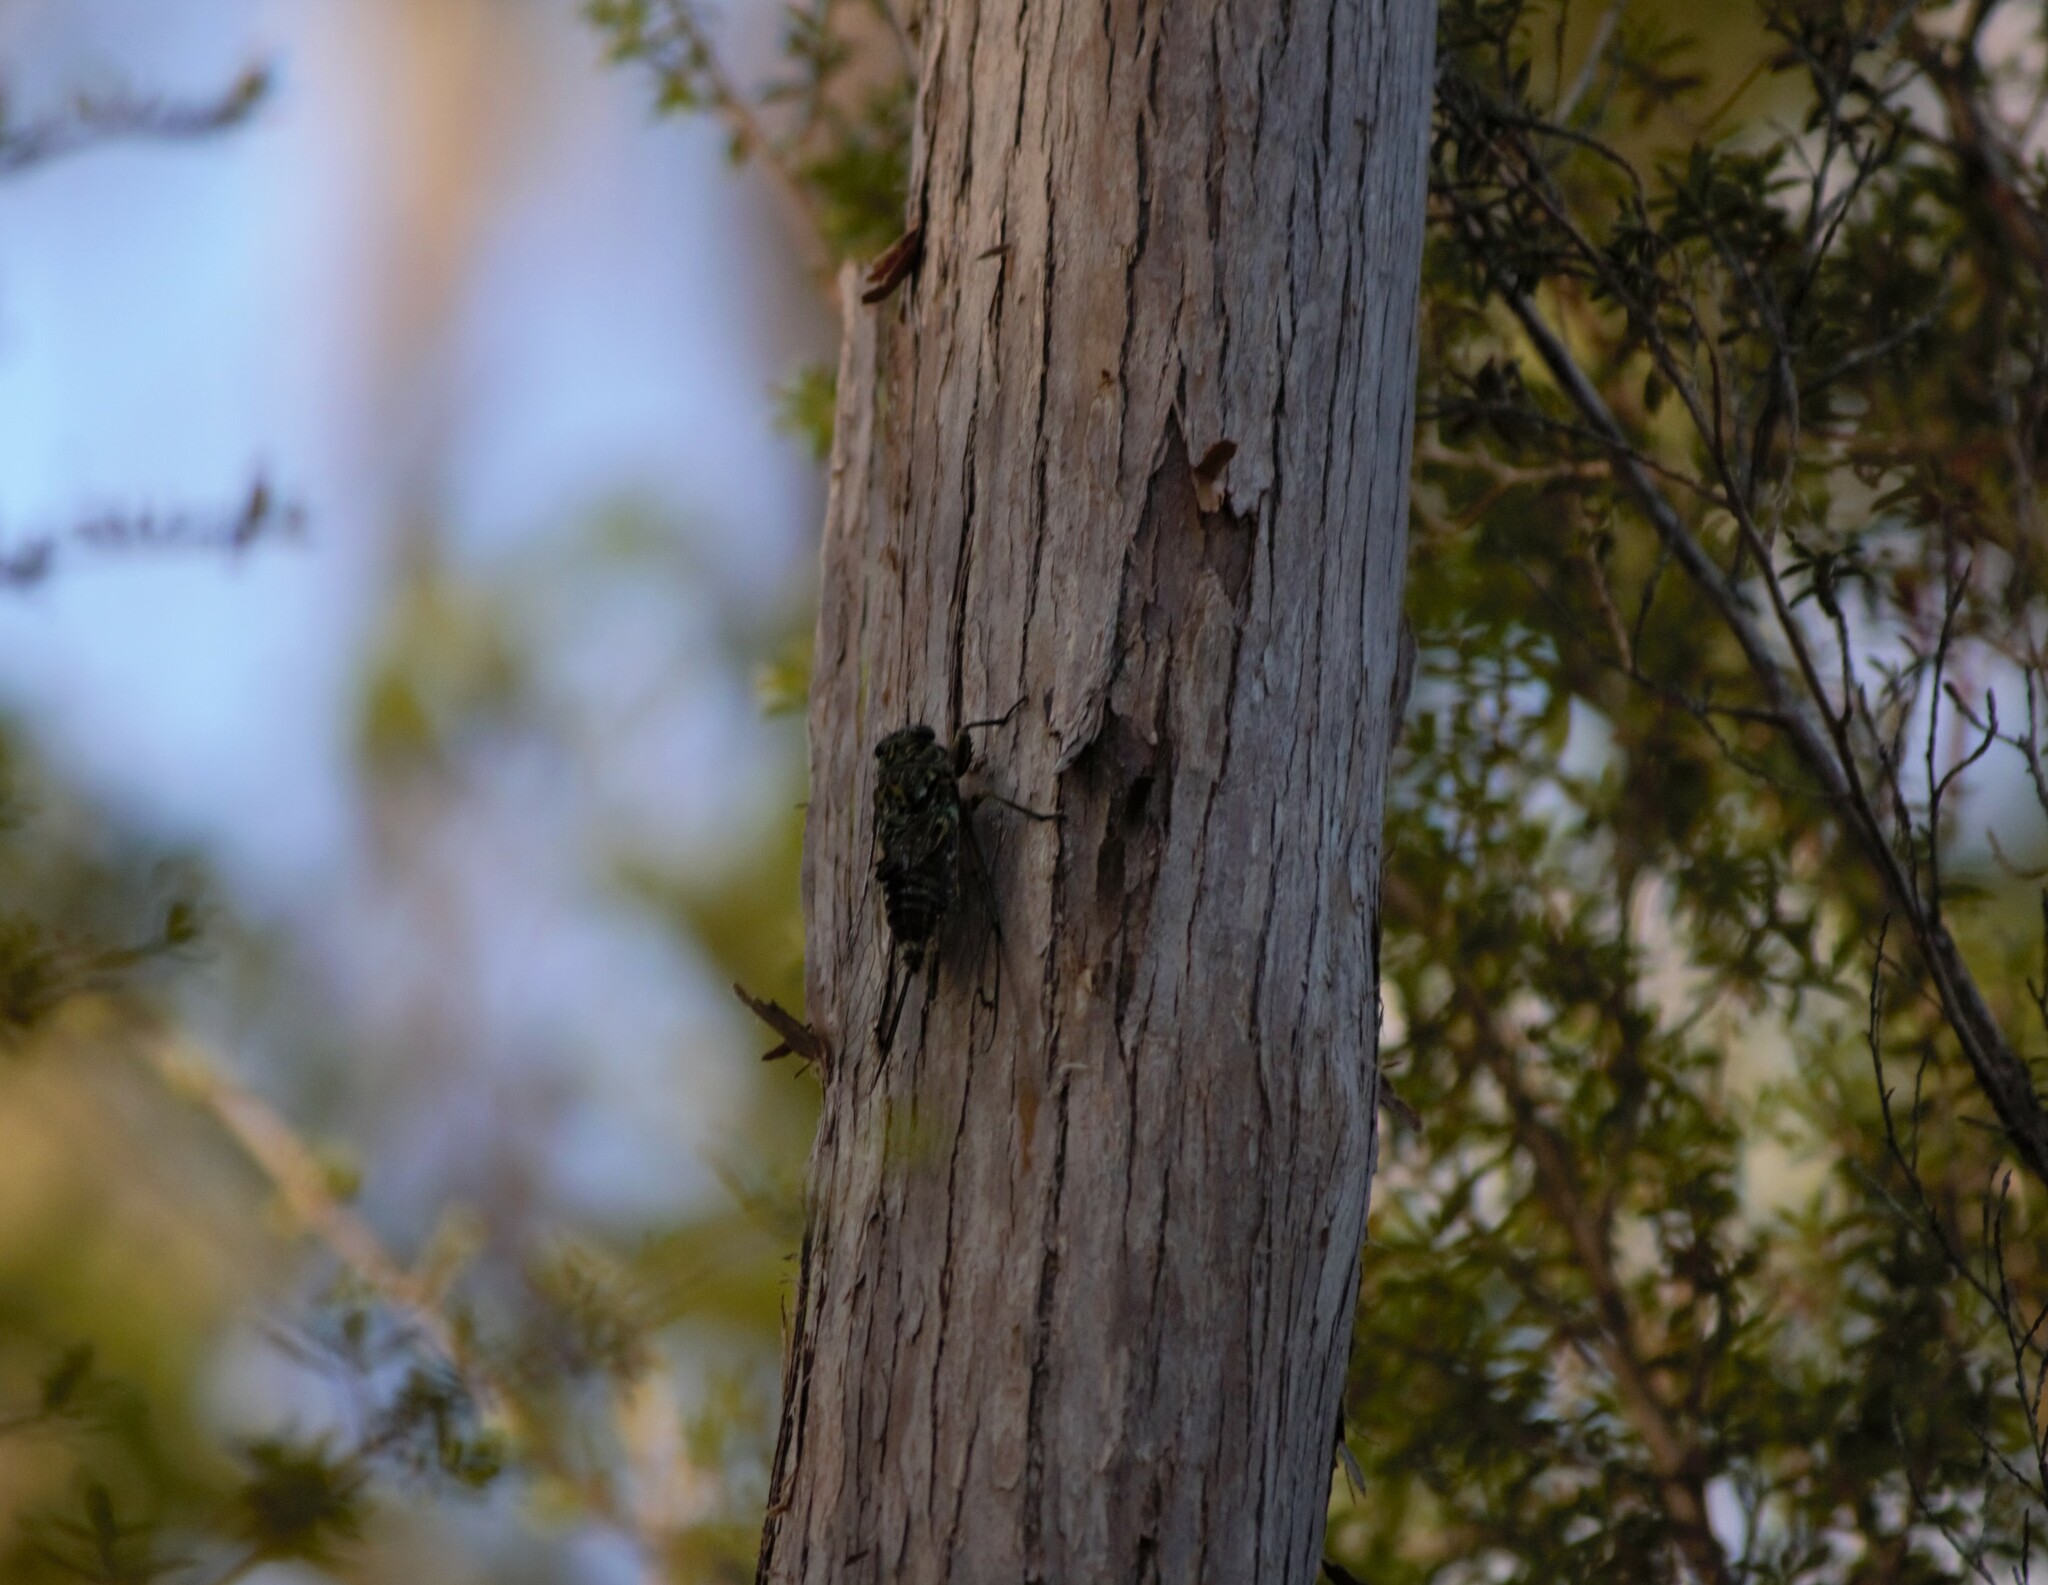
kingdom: Animalia
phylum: Arthropoda
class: Insecta
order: Hemiptera
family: Cicadidae
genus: Amphipsalta
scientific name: Amphipsalta zelandica
